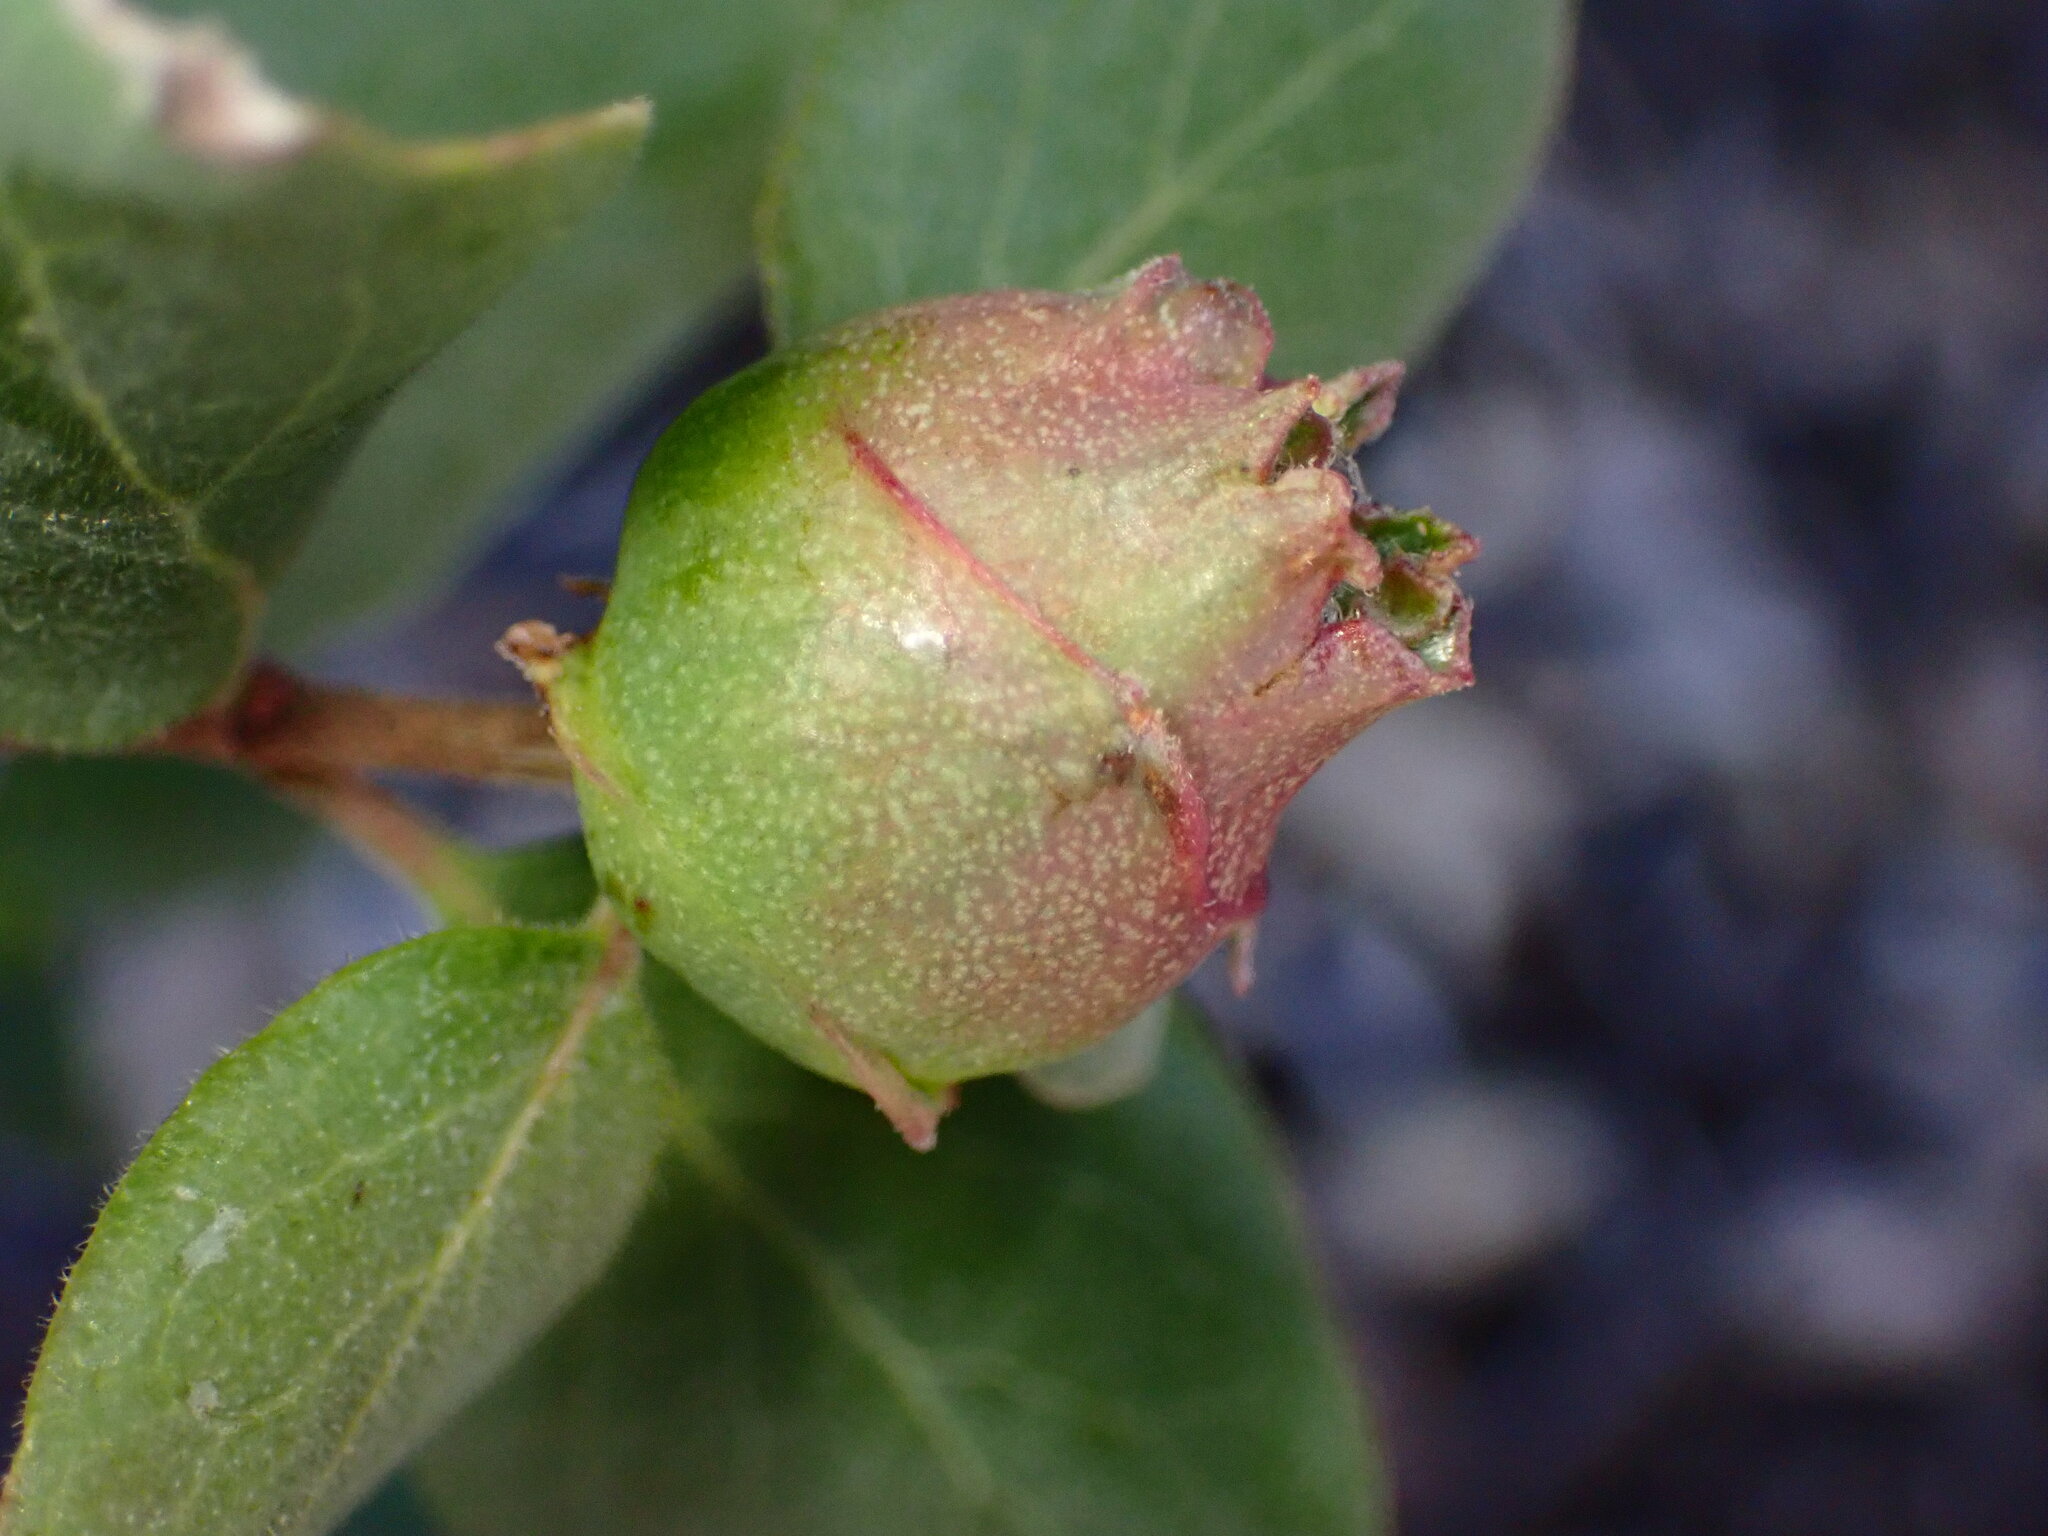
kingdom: Animalia
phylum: Arthropoda
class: Insecta
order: Diptera
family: Cecidomyiidae
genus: Lonicerae
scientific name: Lonicerae
